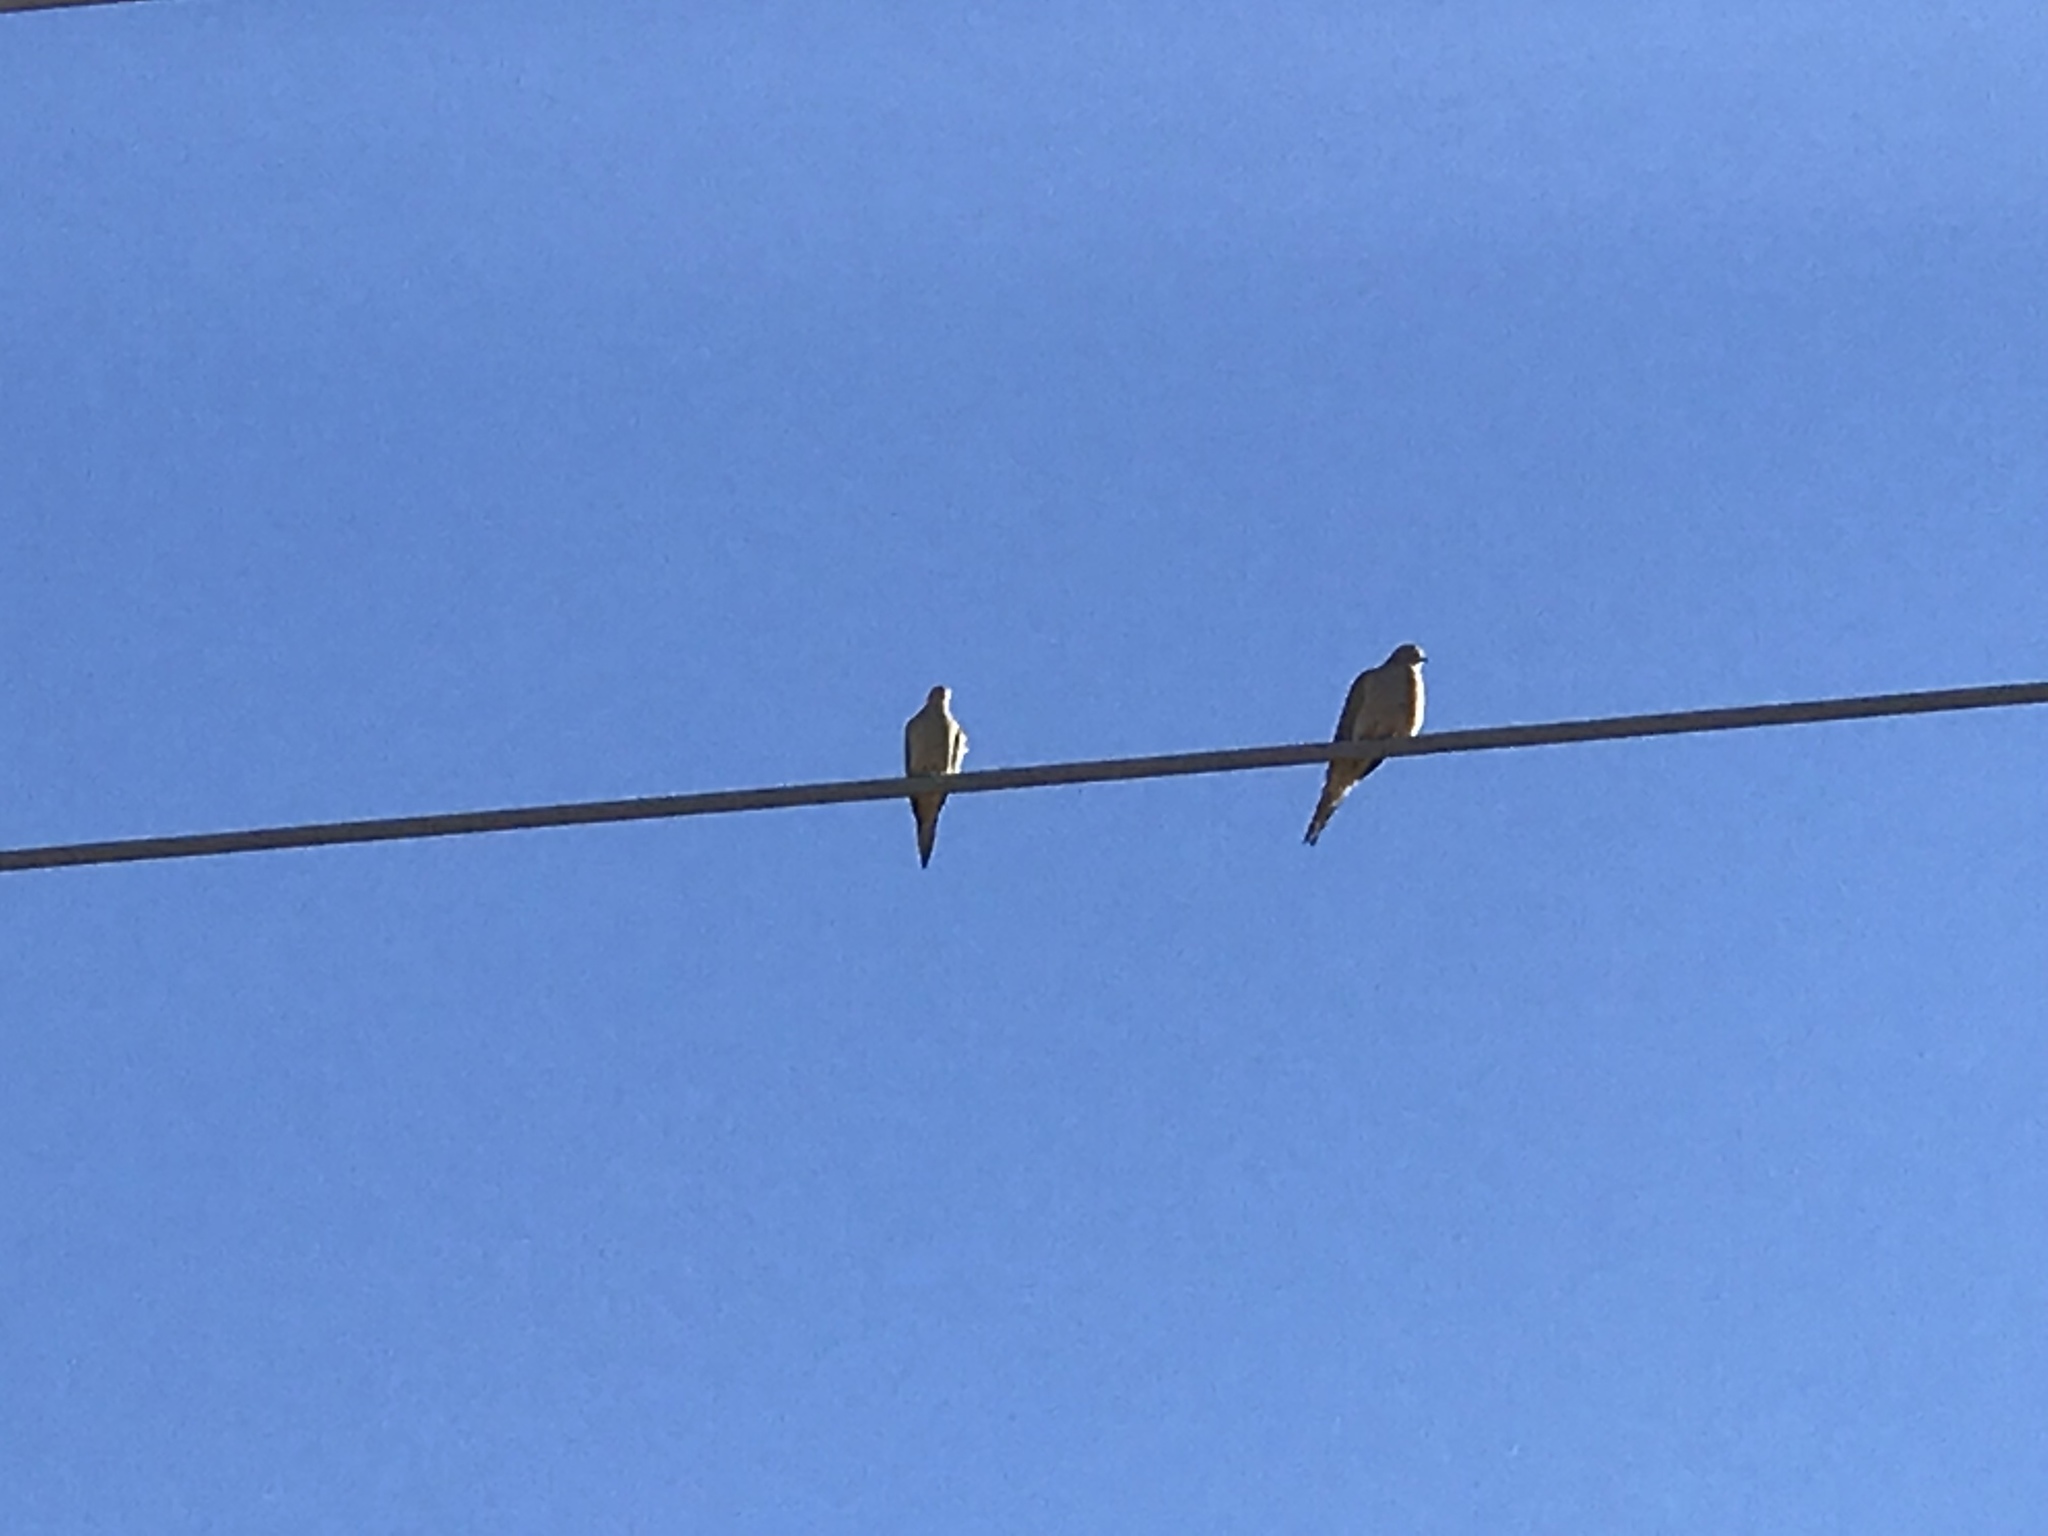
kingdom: Animalia
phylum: Chordata
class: Aves
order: Columbiformes
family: Columbidae
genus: Zenaida
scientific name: Zenaida macroura
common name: Mourning dove
